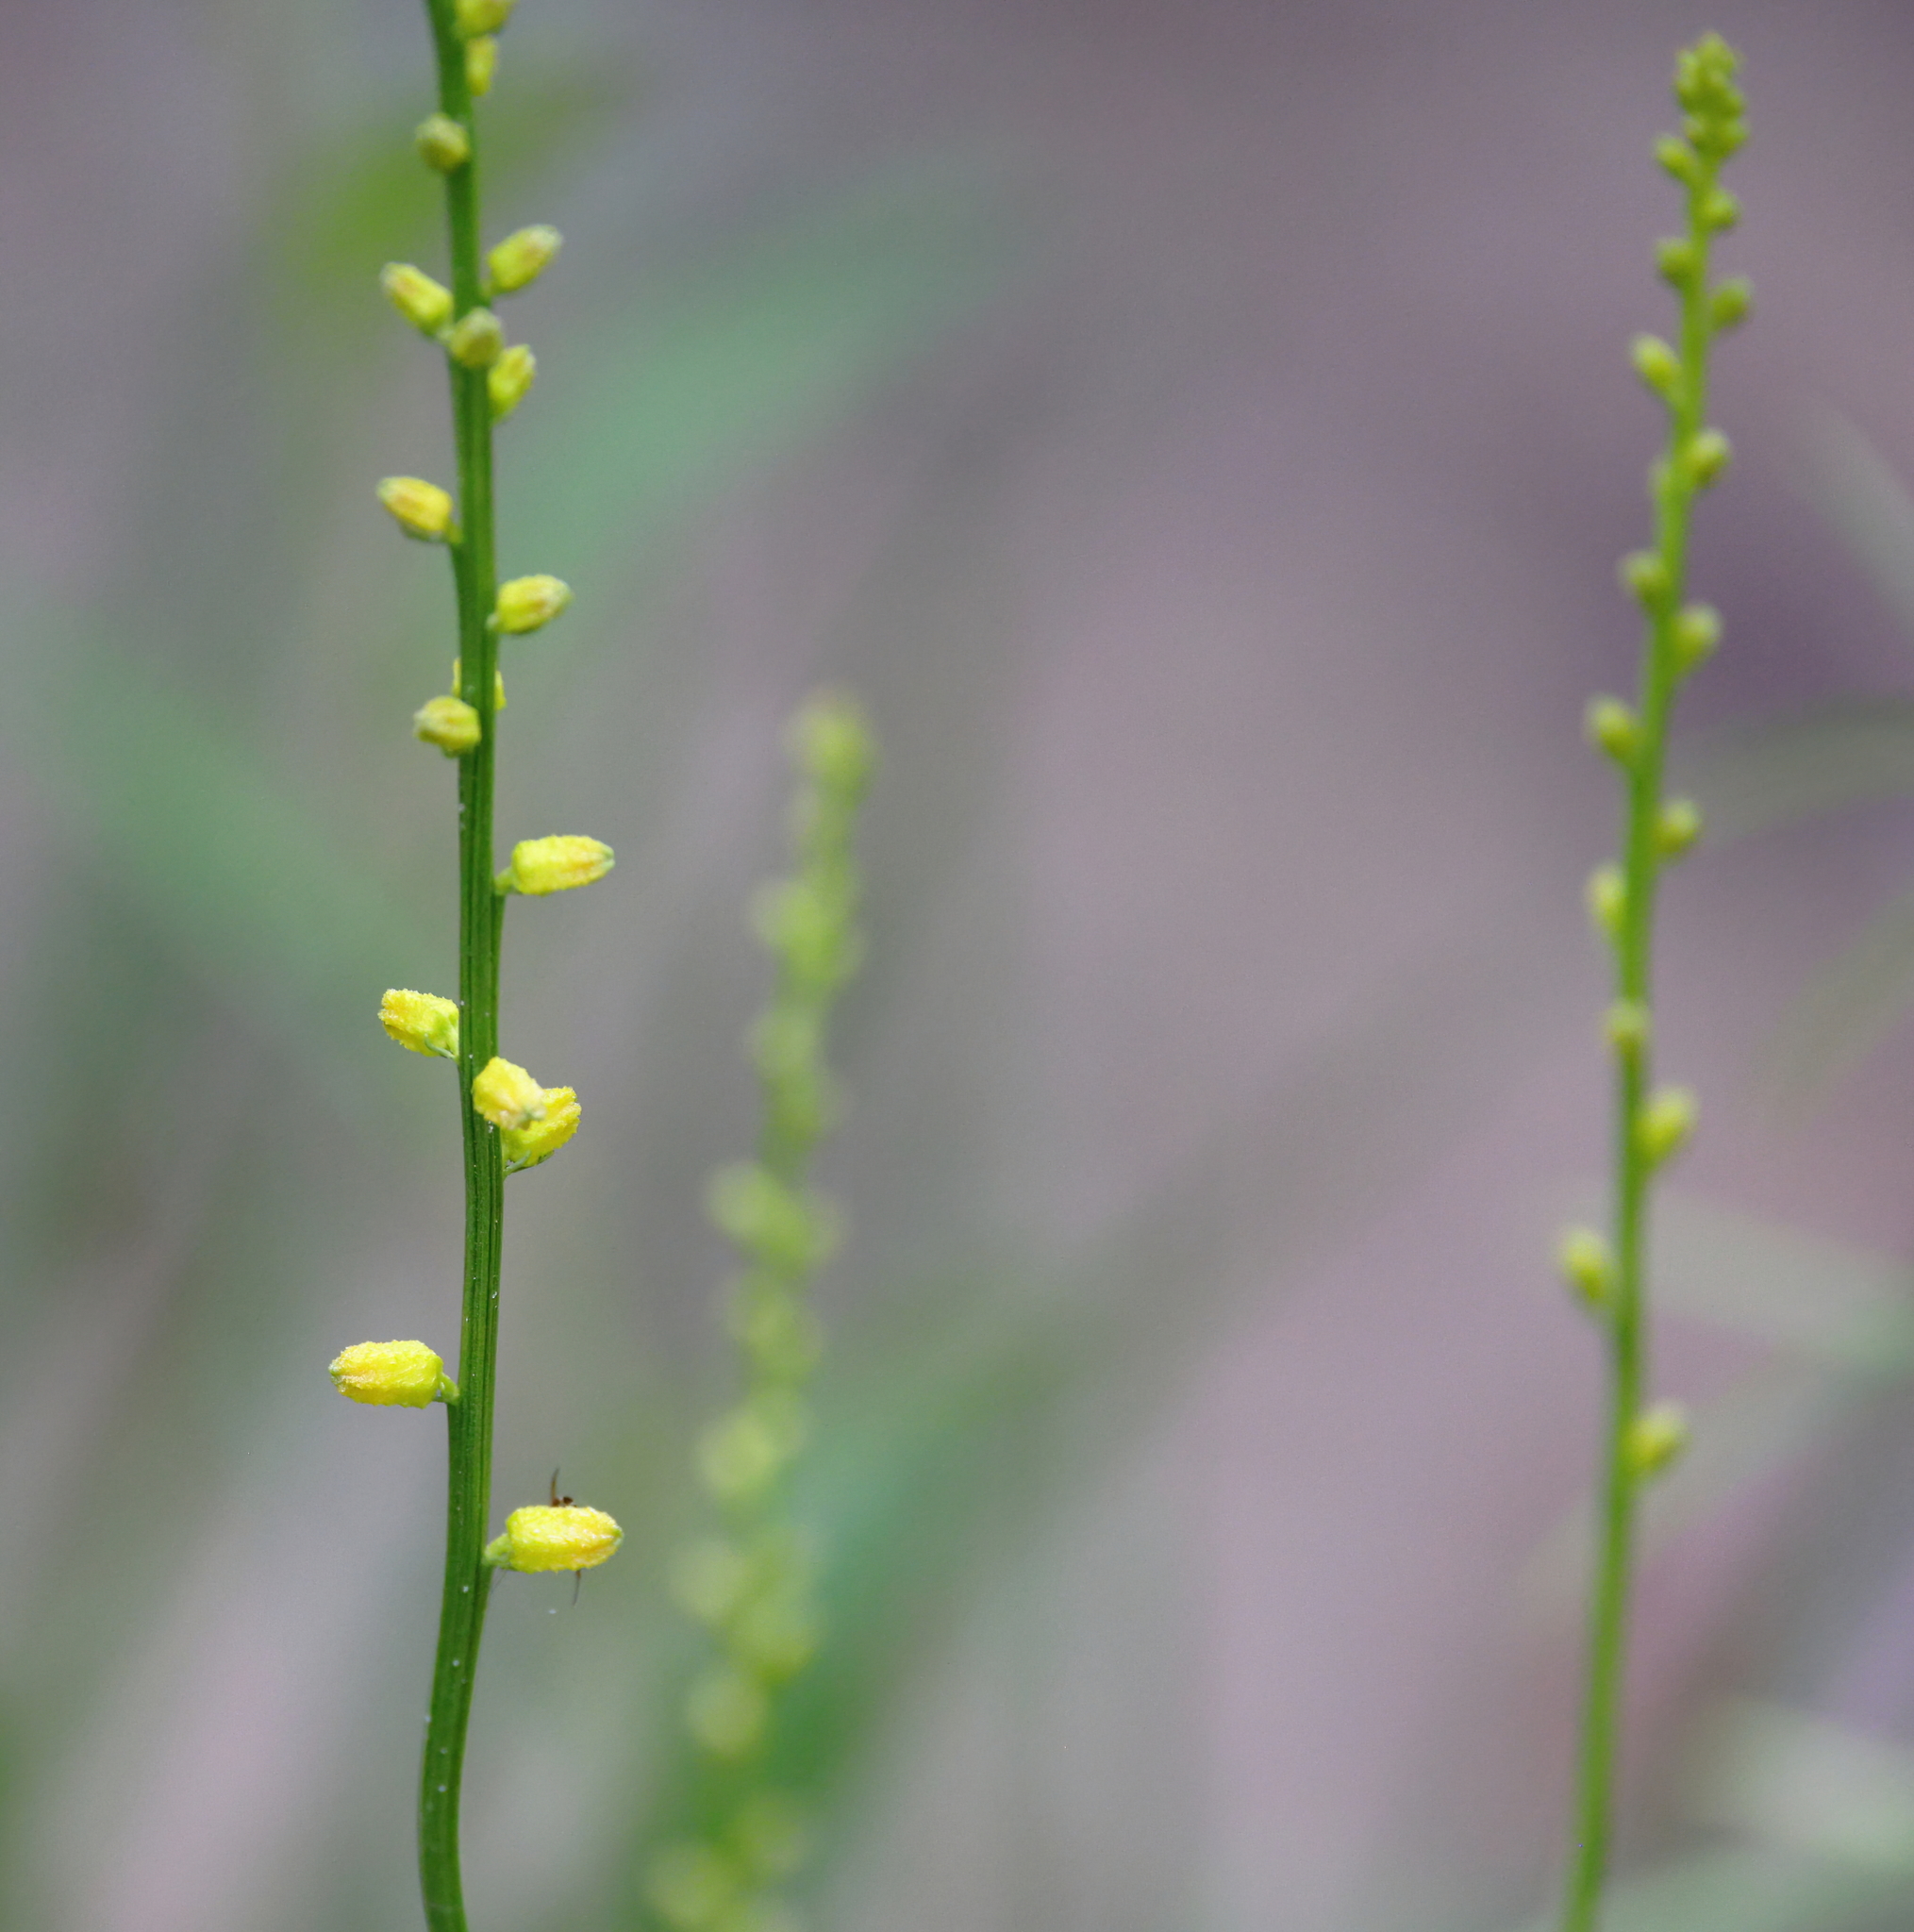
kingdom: Plantae
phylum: Tracheophyta
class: Liliopsida
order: Dioscoreales
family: Nartheciaceae
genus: Aletris
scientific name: Aletris aurea
